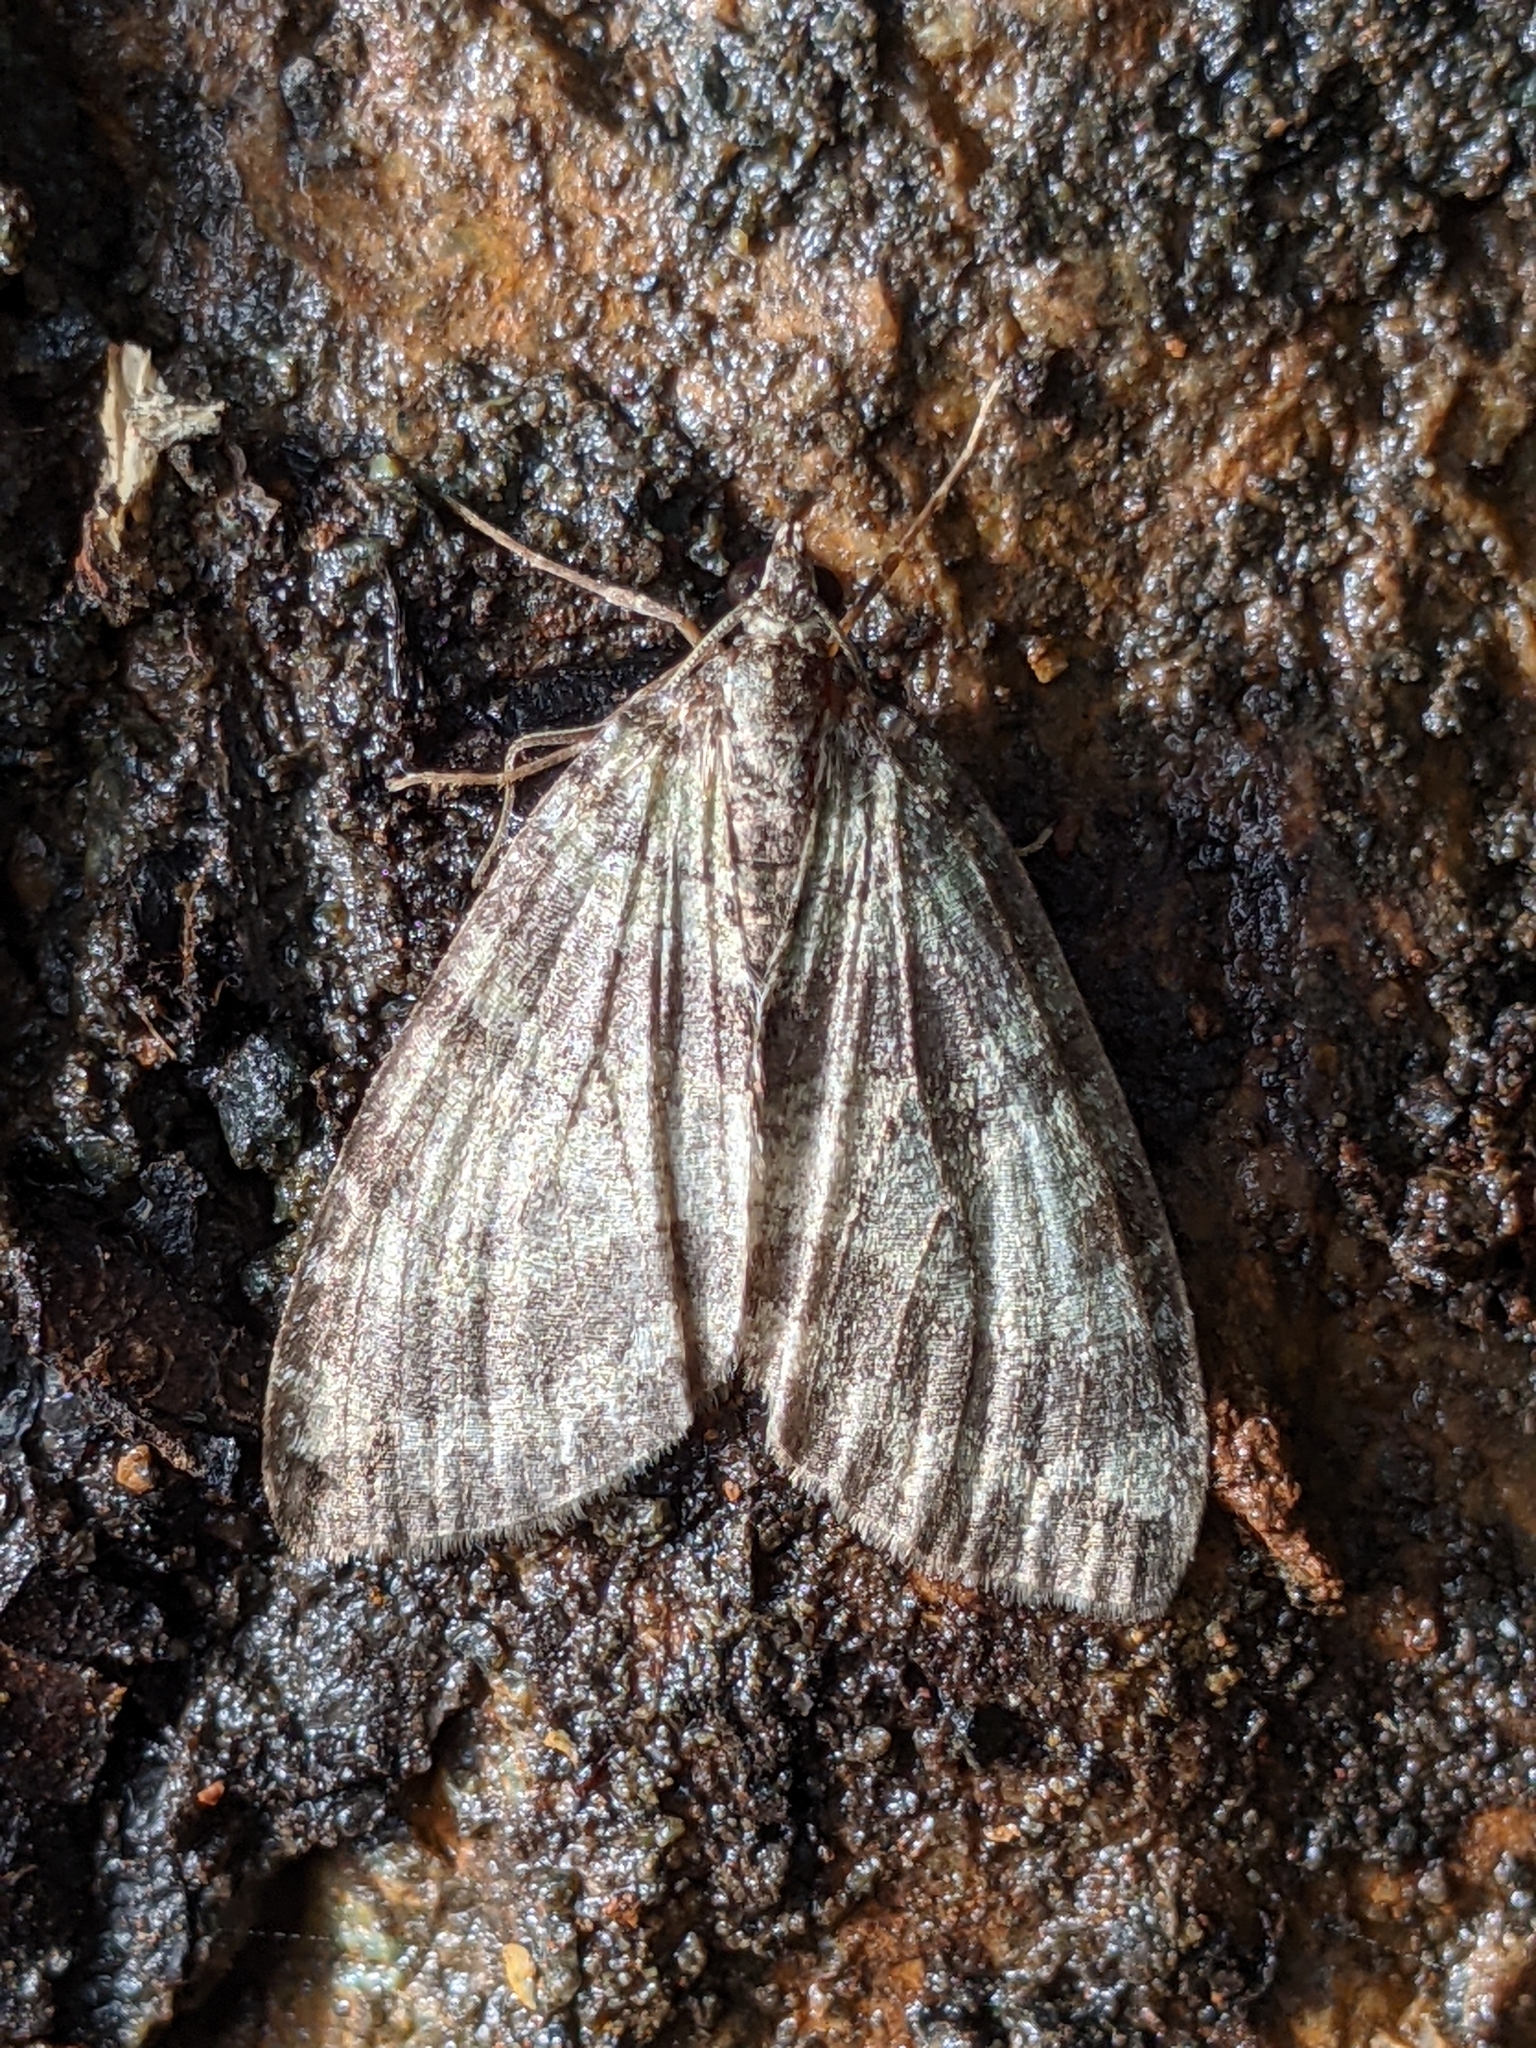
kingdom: Animalia
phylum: Arthropoda
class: Insecta
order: Lepidoptera
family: Geometridae
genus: Hydriomena
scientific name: Hydriomena nubilofasciata
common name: Oak winter highflier moth
